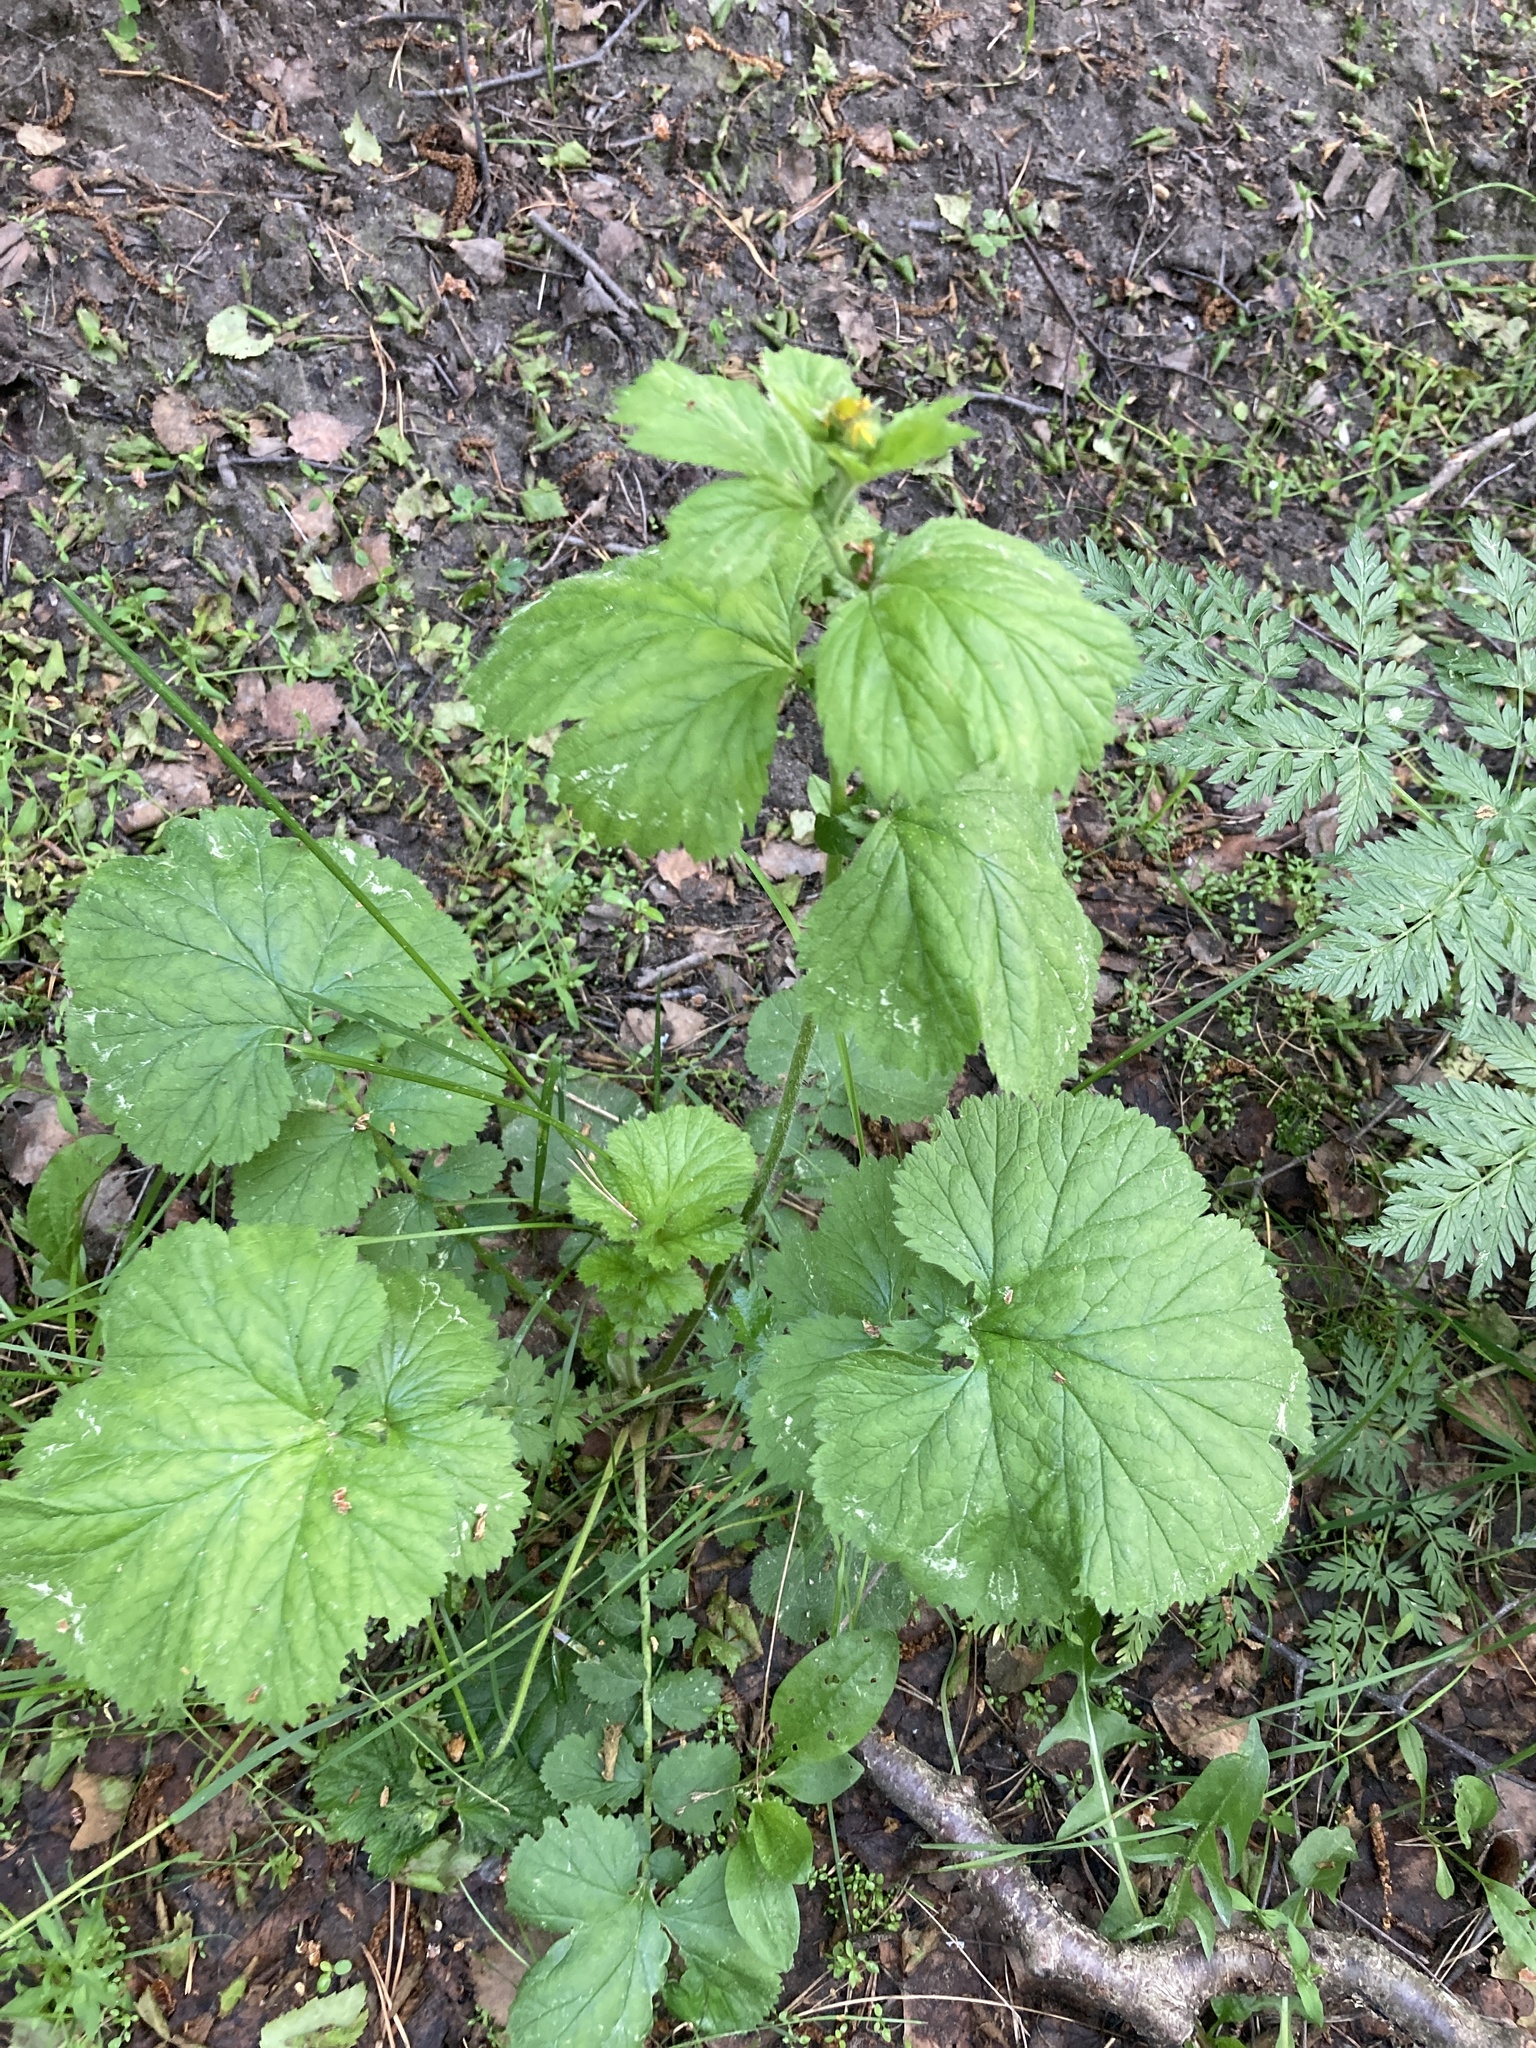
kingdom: Plantae
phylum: Tracheophyta
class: Magnoliopsida
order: Rosales
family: Rosaceae
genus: Geum
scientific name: Geum macrophyllum
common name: Large-leaved avens
